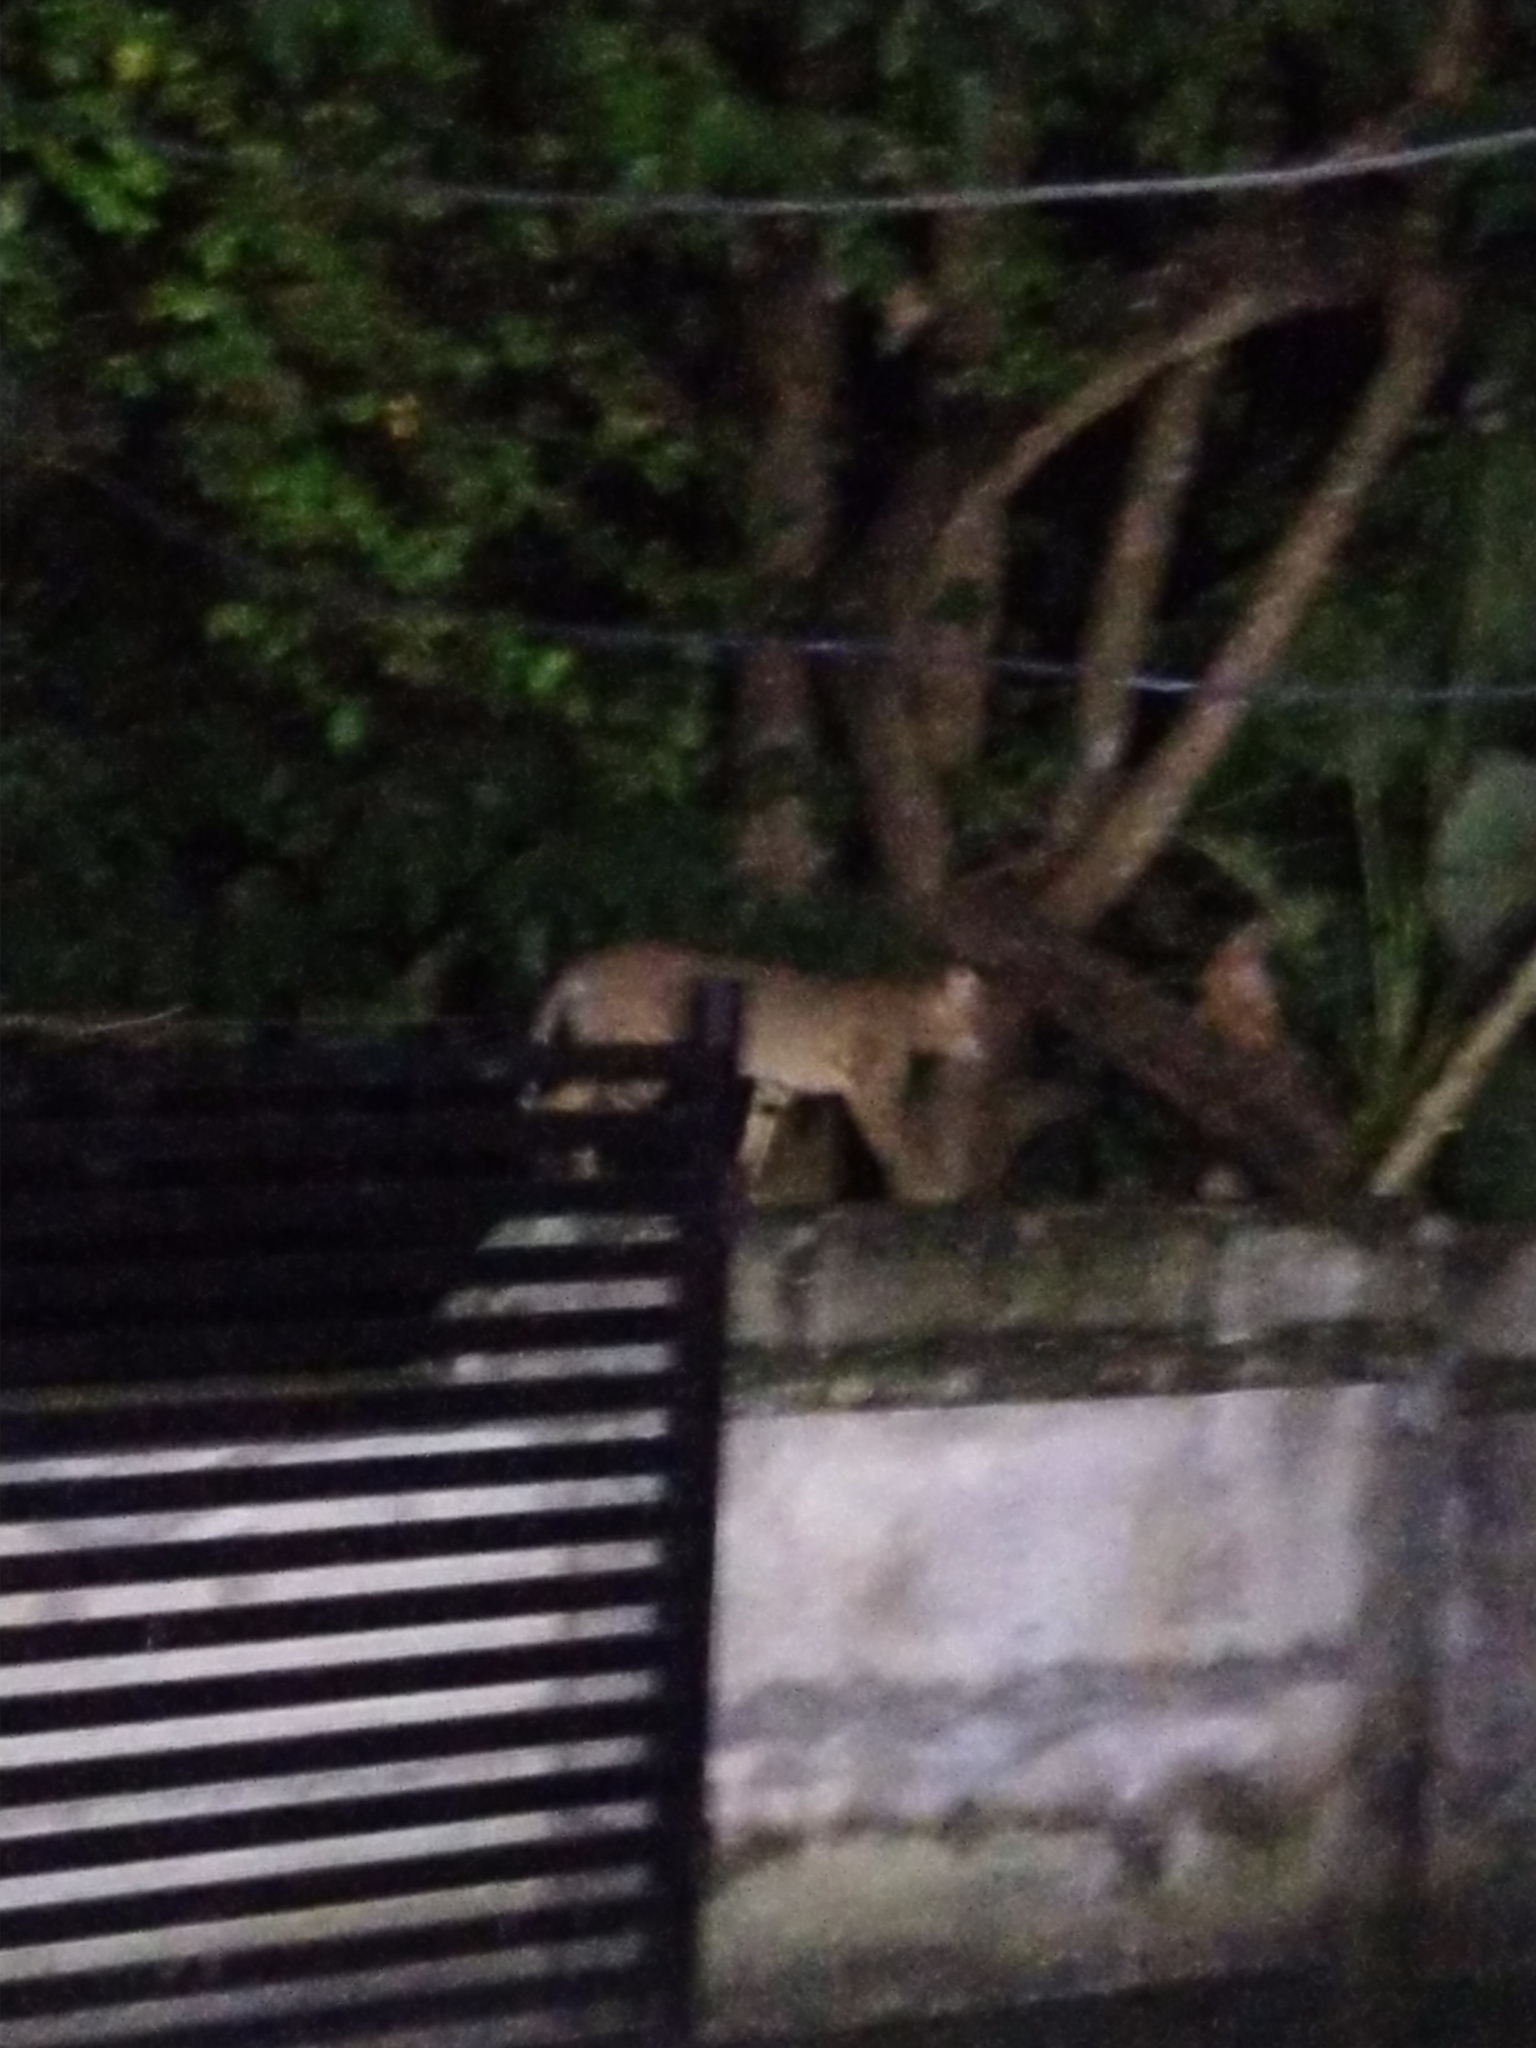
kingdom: Animalia
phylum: Chordata
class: Mammalia
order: Carnivora
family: Felidae
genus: Felis
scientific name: Felis chaus
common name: Jungle cat
